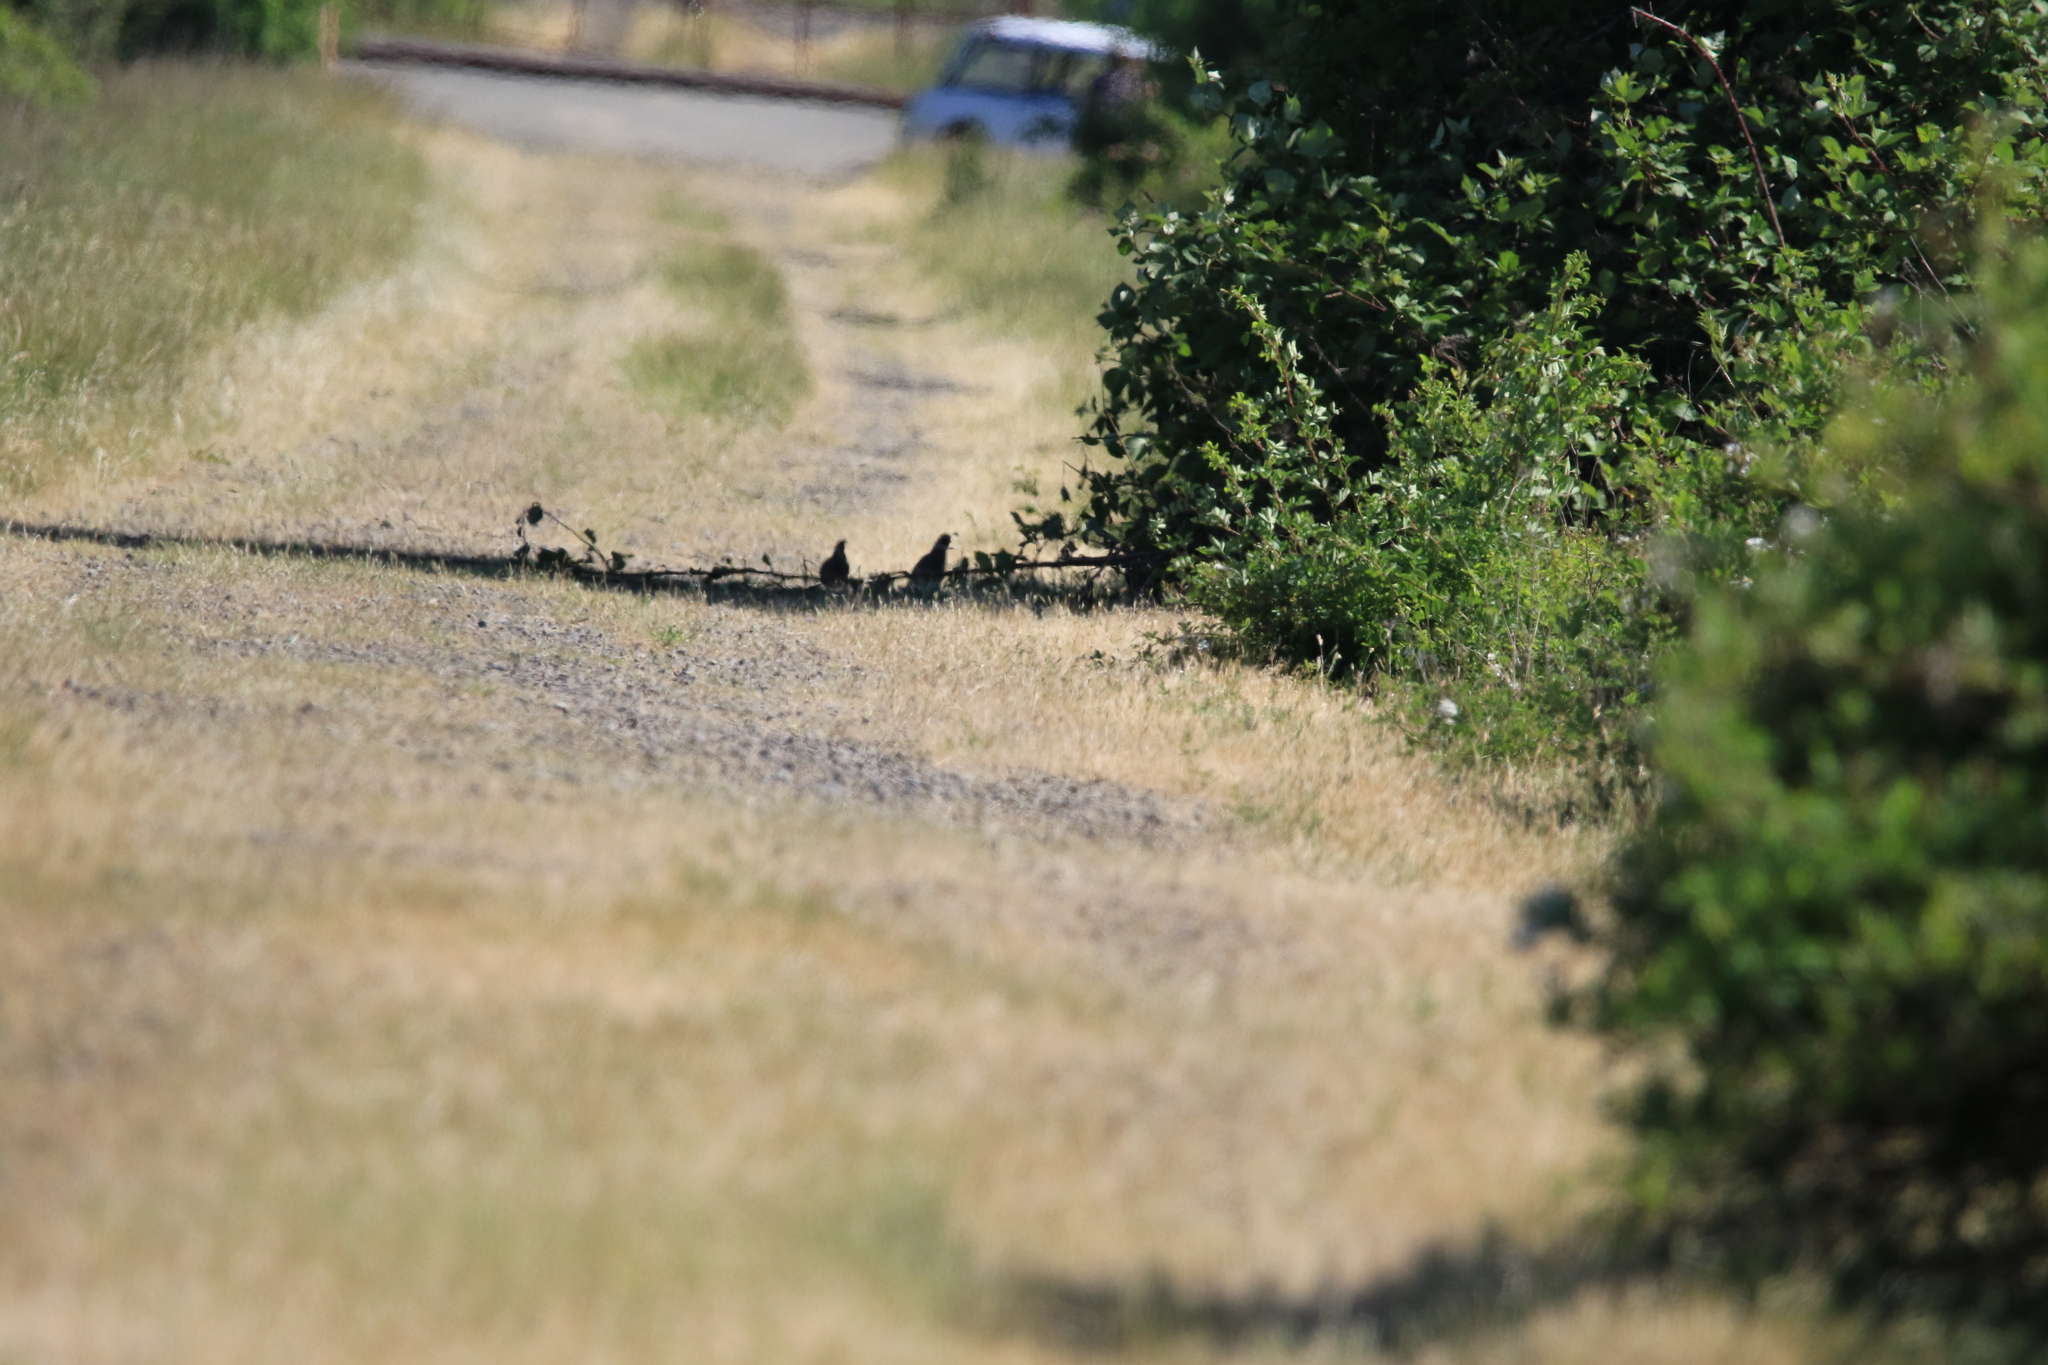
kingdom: Animalia
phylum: Chordata
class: Aves
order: Galliformes
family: Odontophoridae
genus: Callipepla
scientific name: Callipepla californica
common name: California quail
